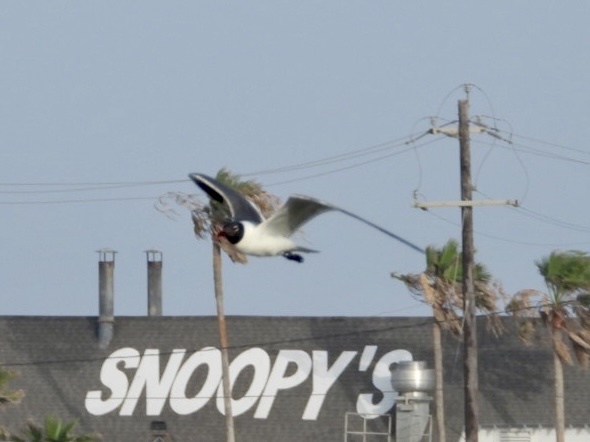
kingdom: Animalia
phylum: Chordata
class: Aves
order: Charadriiformes
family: Laridae
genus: Leucophaeus
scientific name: Leucophaeus atricilla
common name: Laughing gull
